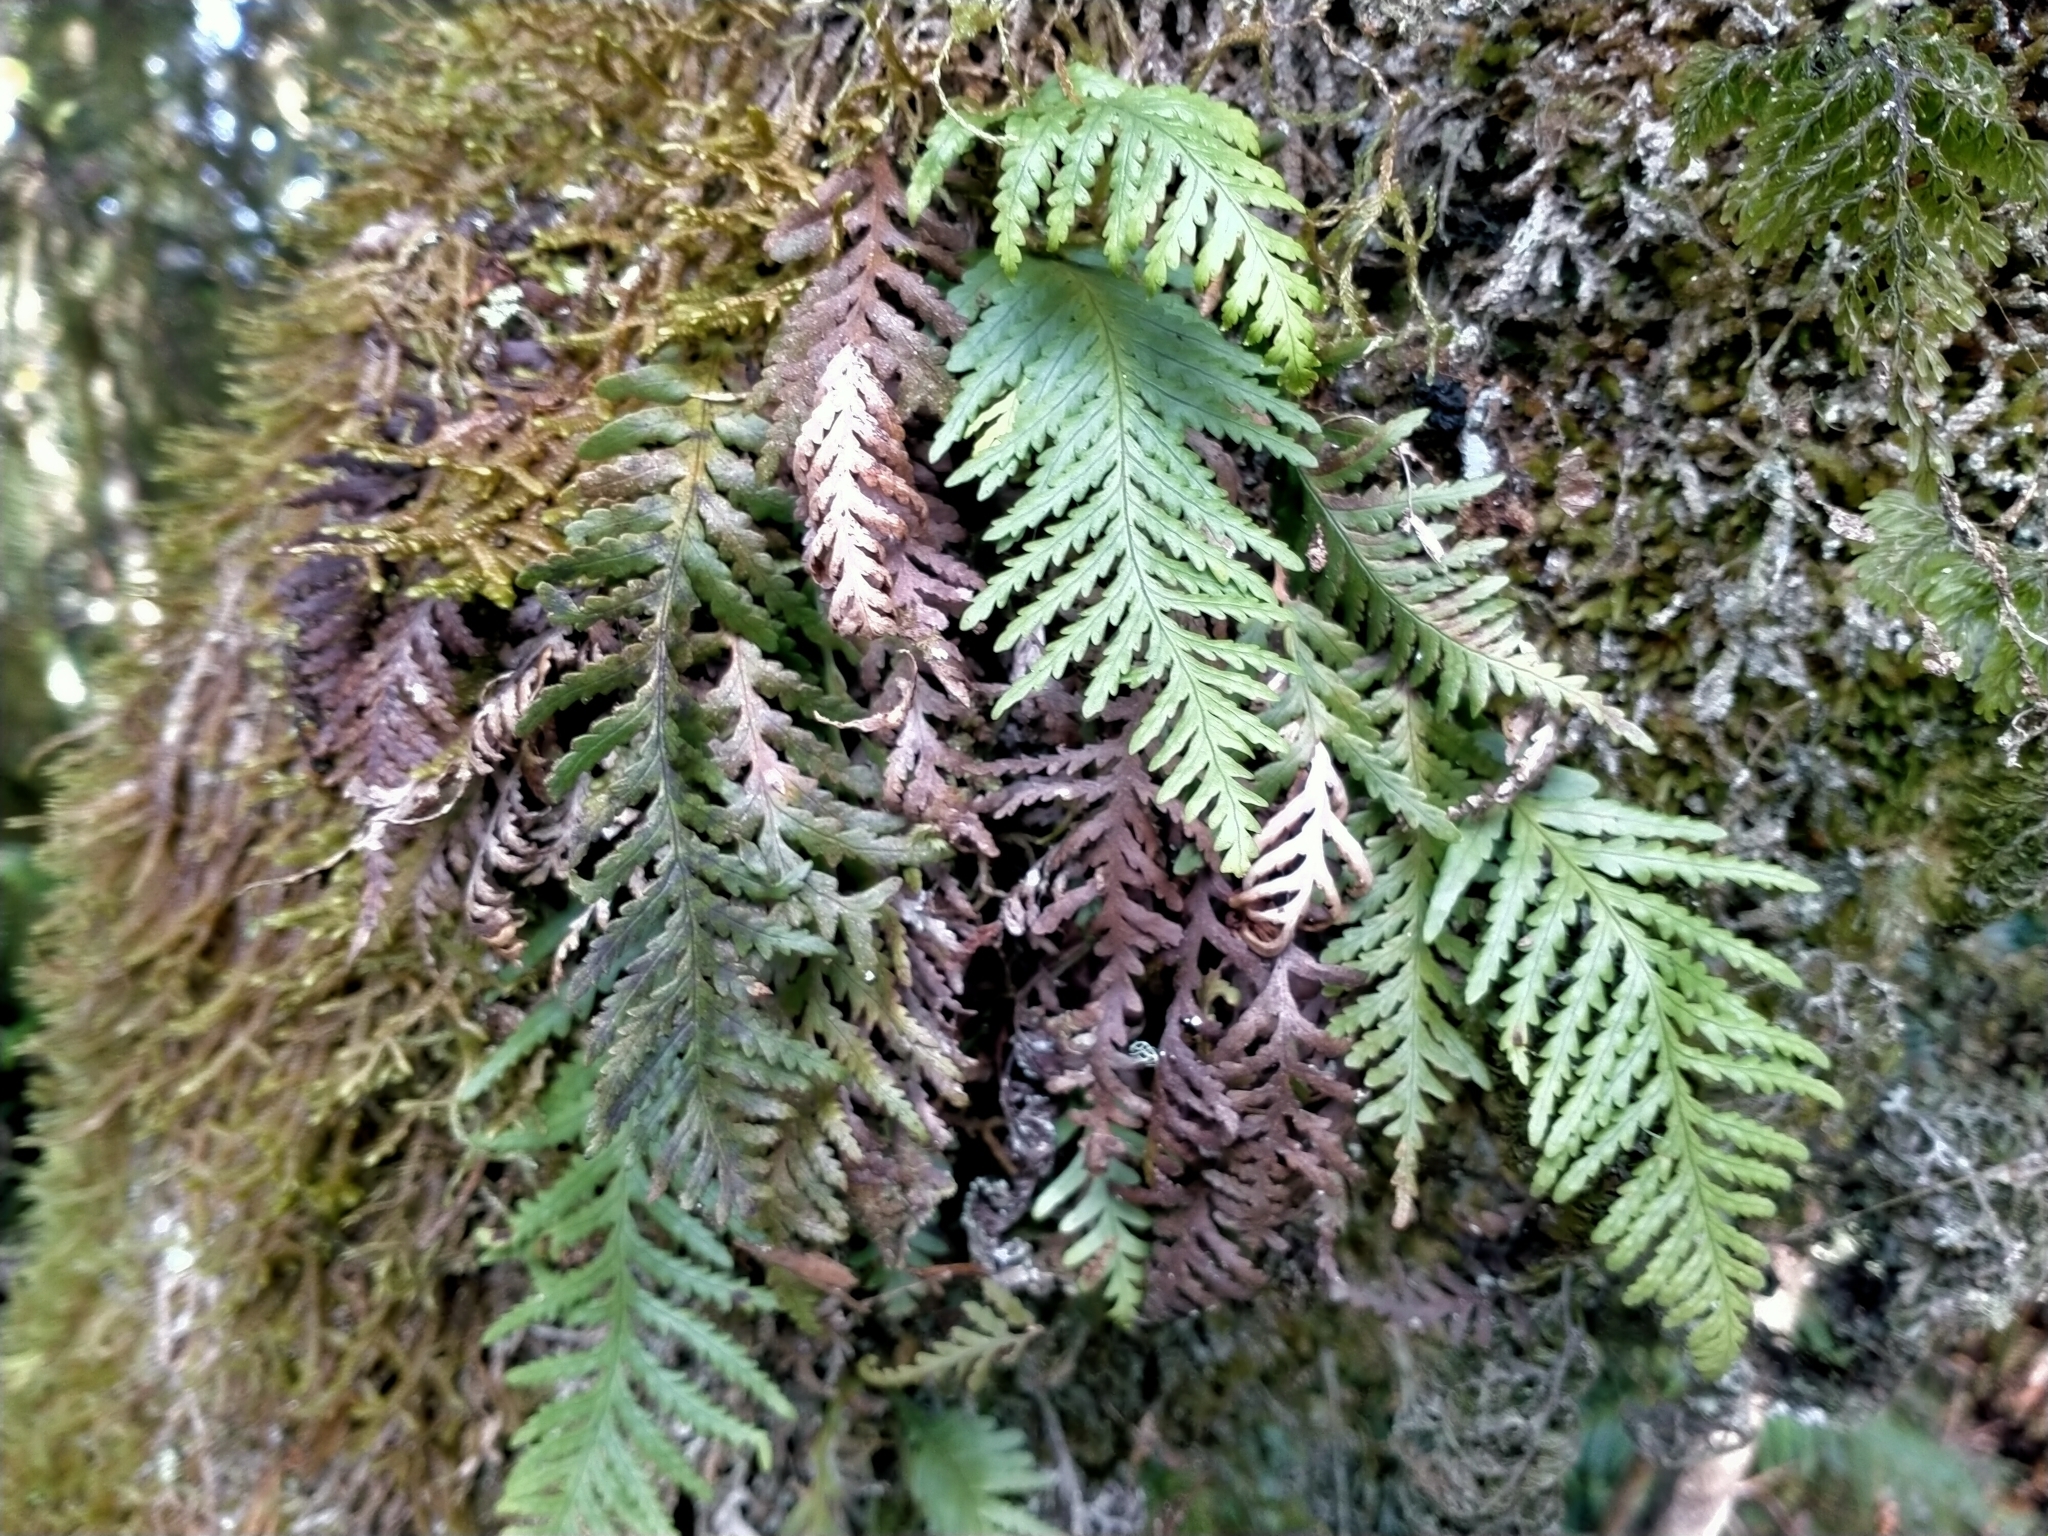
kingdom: Plantae
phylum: Tracheophyta
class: Polypodiopsida
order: Polypodiales
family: Polypodiaceae
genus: Notogrammitis
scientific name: Notogrammitis heterophylla
